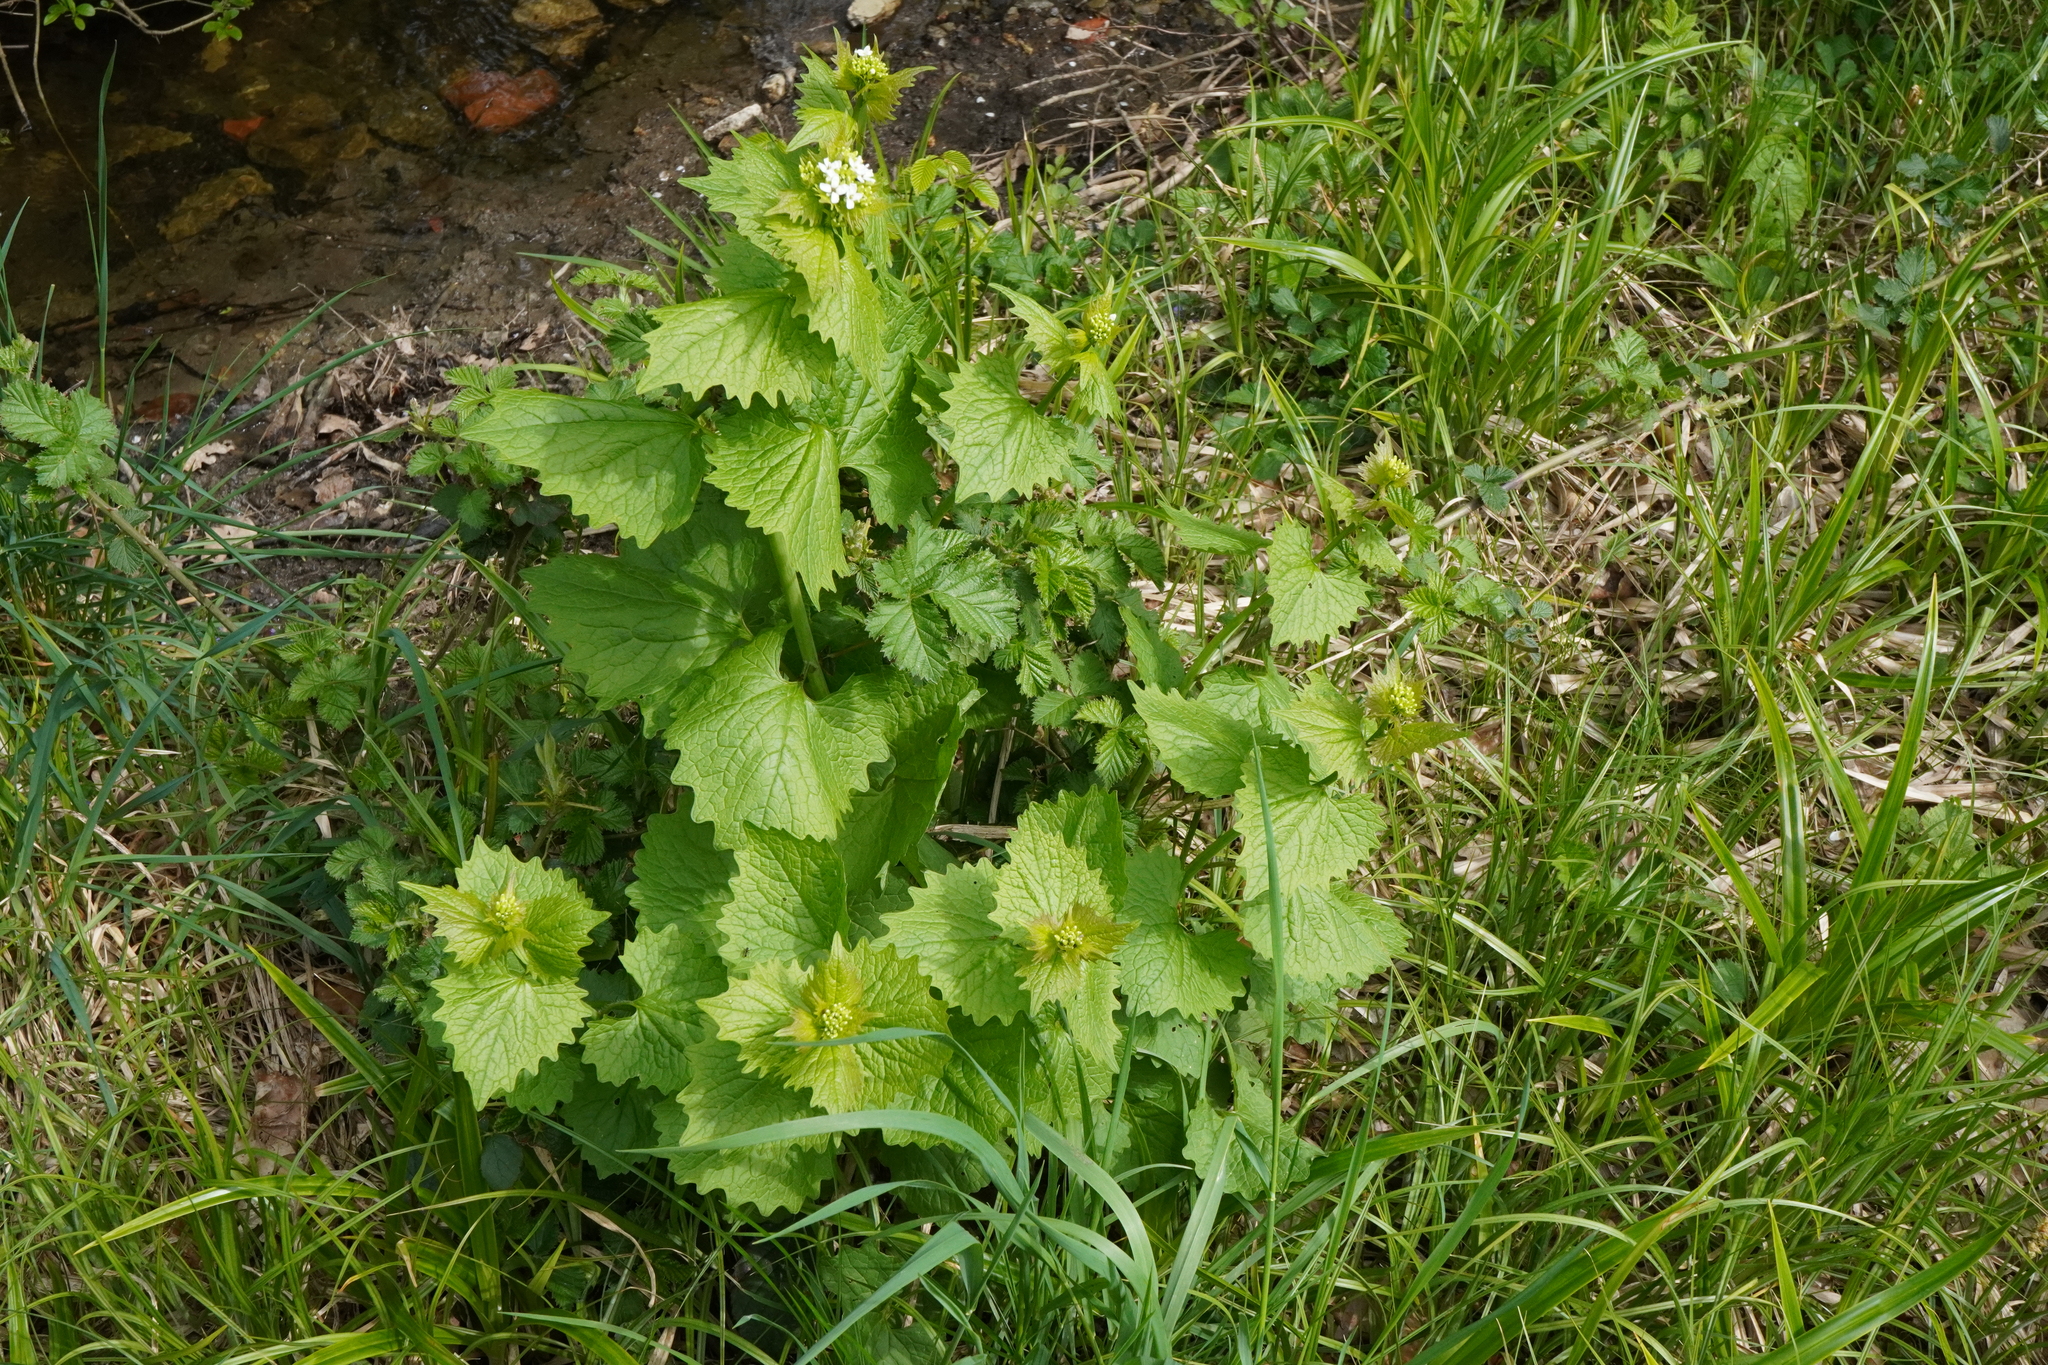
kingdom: Plantae
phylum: Tracheophyta
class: Magnoliopsida
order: Brassicales
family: Brassicaceae
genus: Alliaria
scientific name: Alliaria petiolata
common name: Garlic mustard
